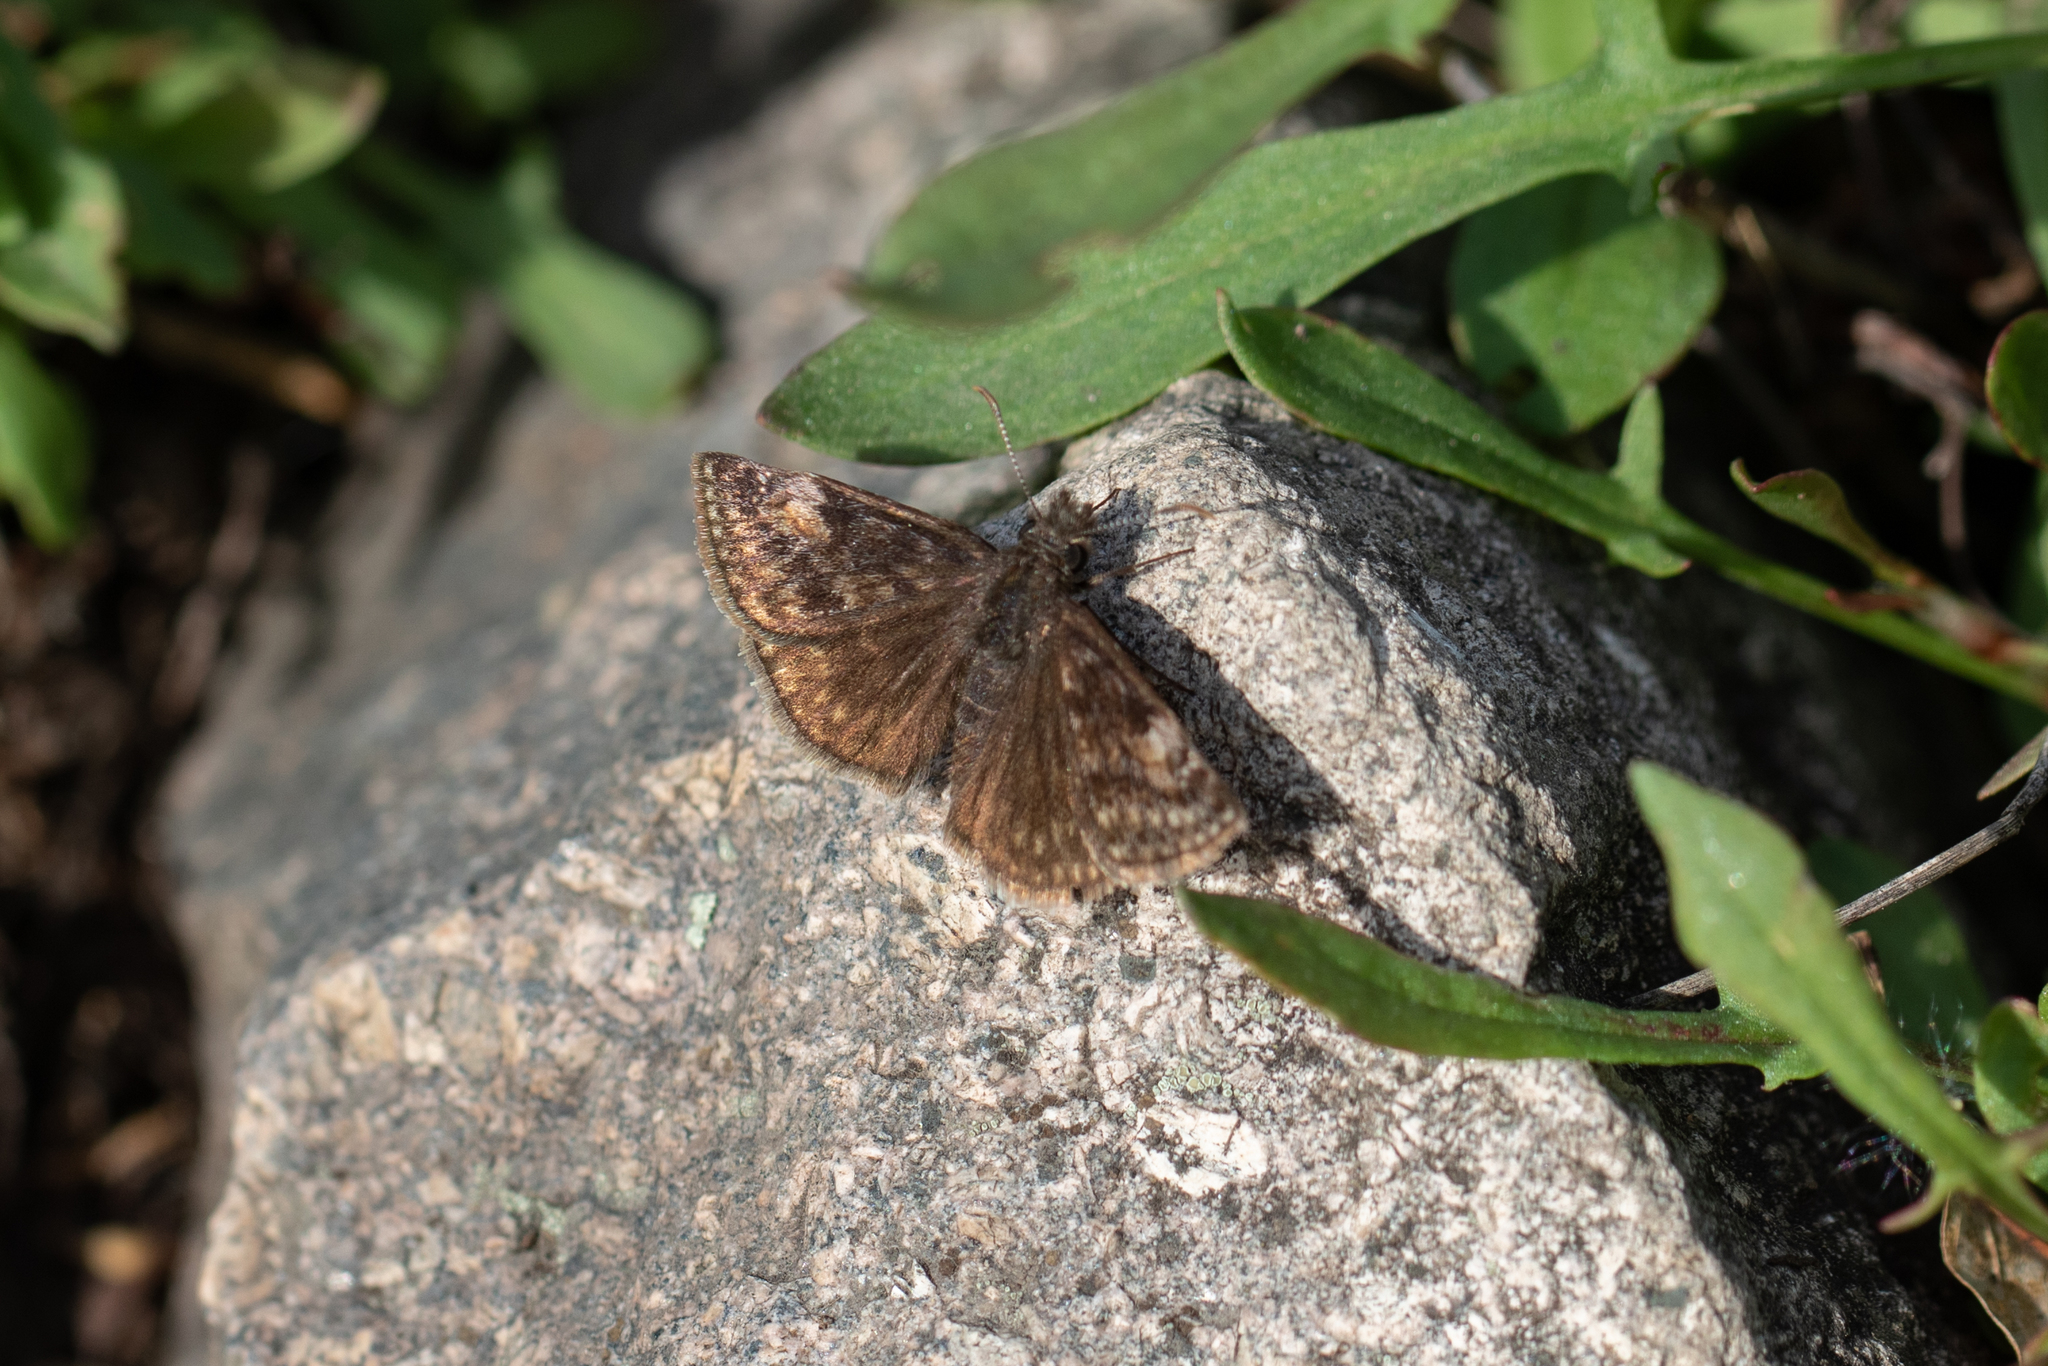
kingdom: Animalia
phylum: Arthropoda
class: Insecta
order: Lepidoptera
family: Hesperiidae
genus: Erynnis
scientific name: Erynnis lucilius
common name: Columbine duskywing
